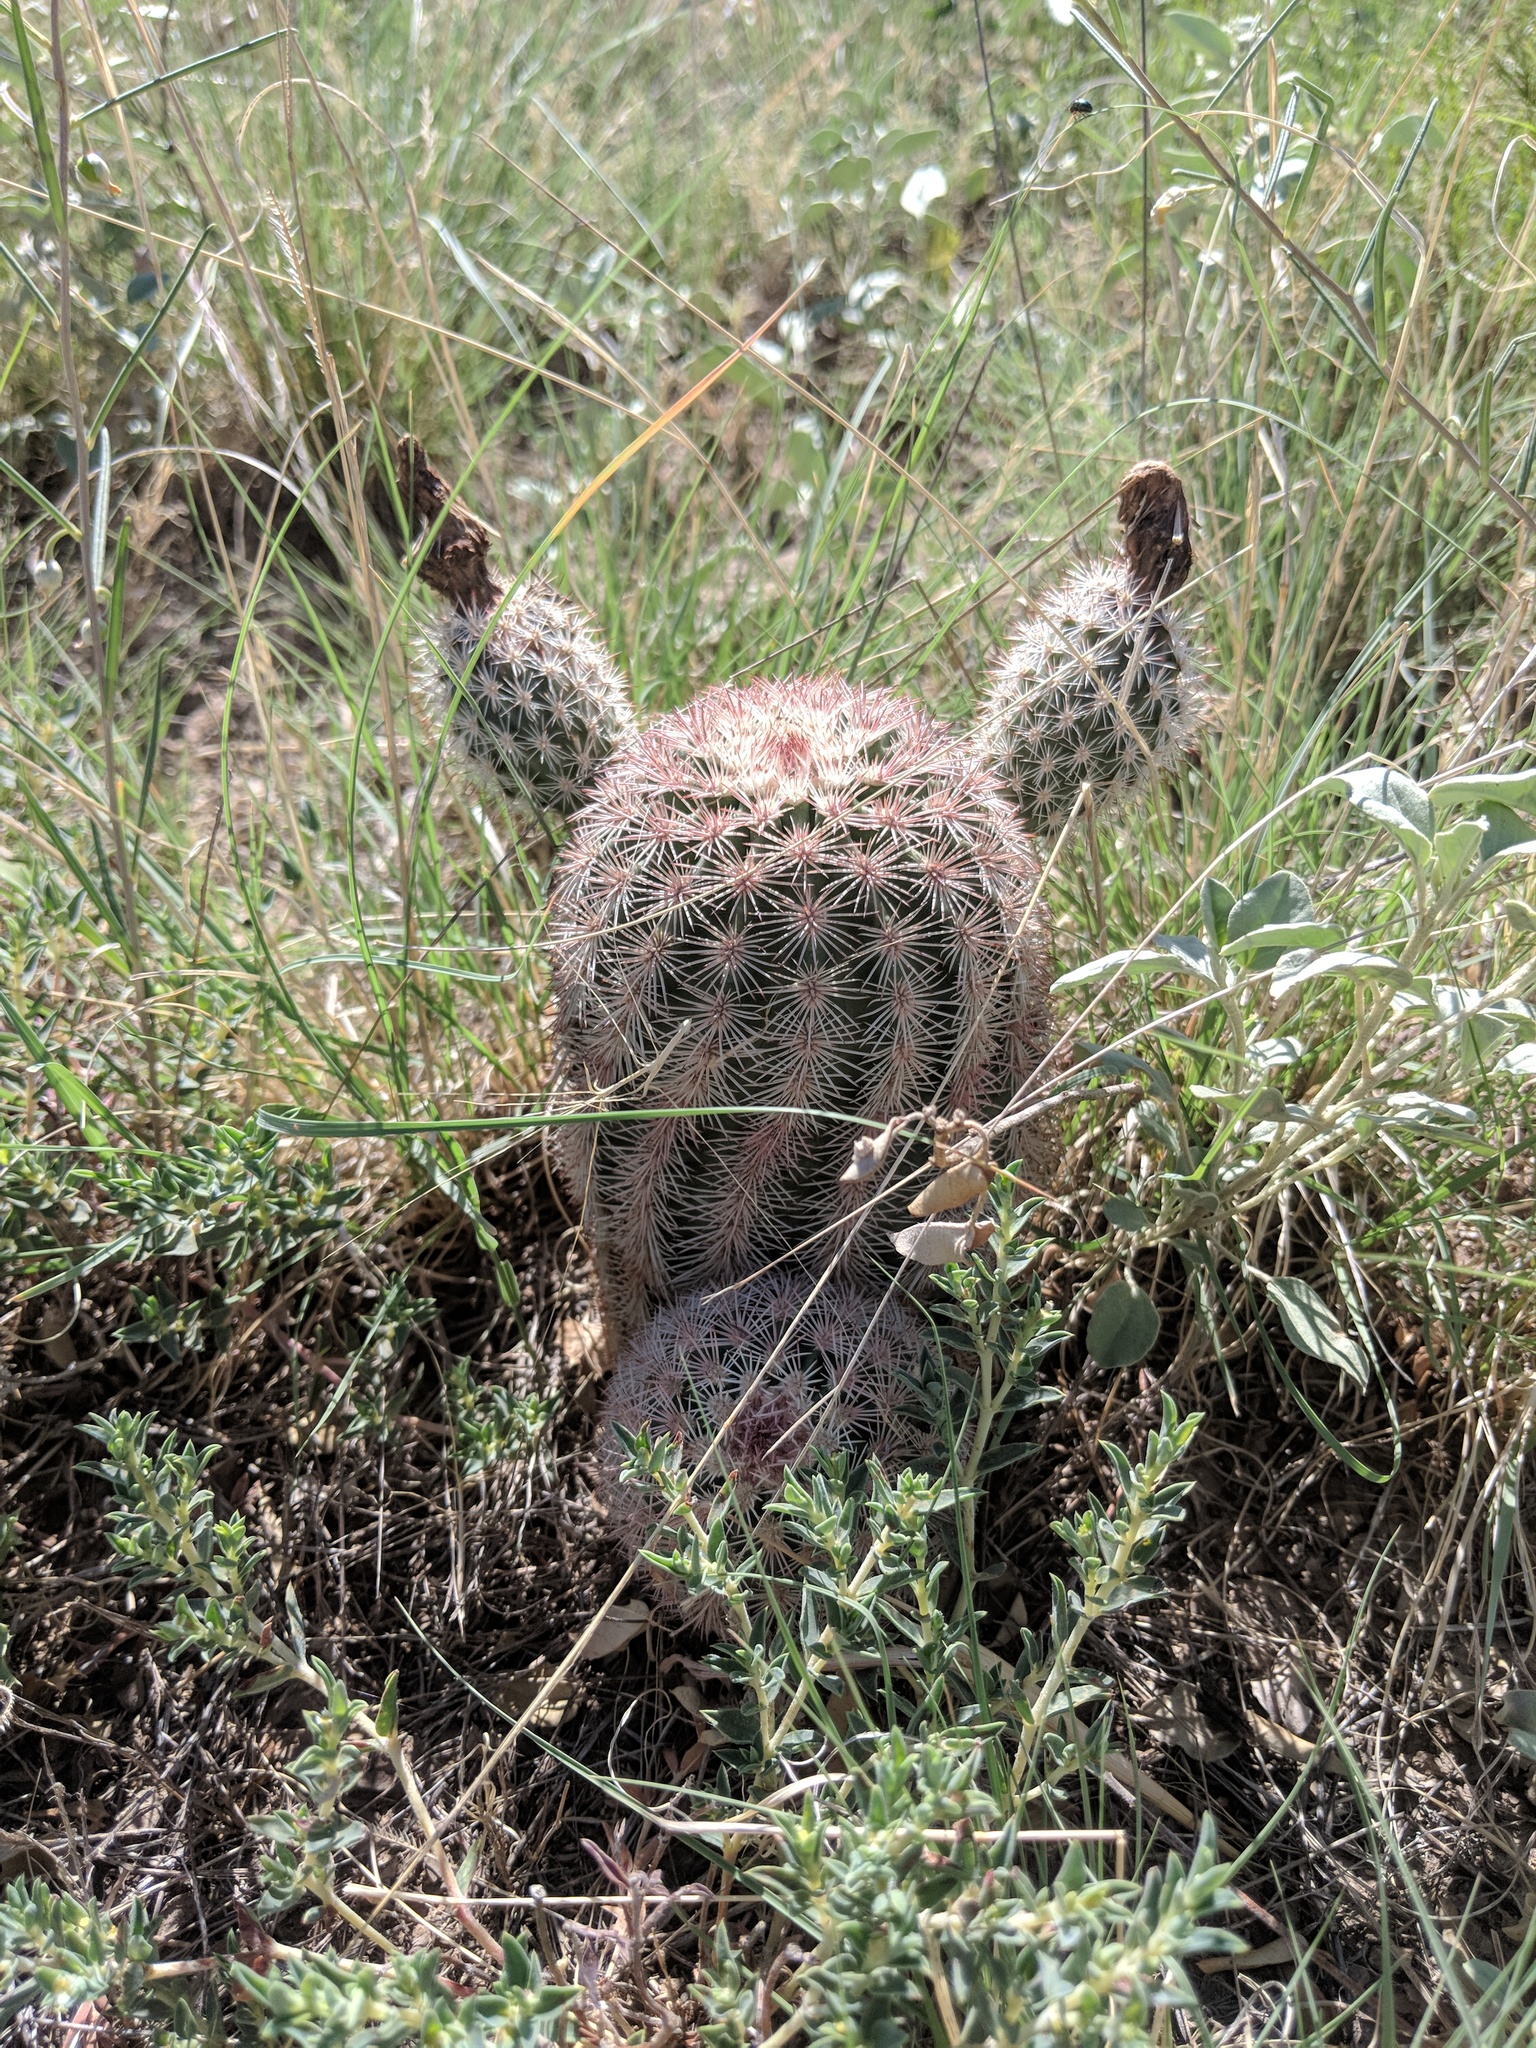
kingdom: Plantae
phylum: Tracheophyta
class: Magnoliopsida
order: Caryophyllales
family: Cactaceae
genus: Echinocereus
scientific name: Echinocereus dasyacanthus
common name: Spiny hedgehog cactus
